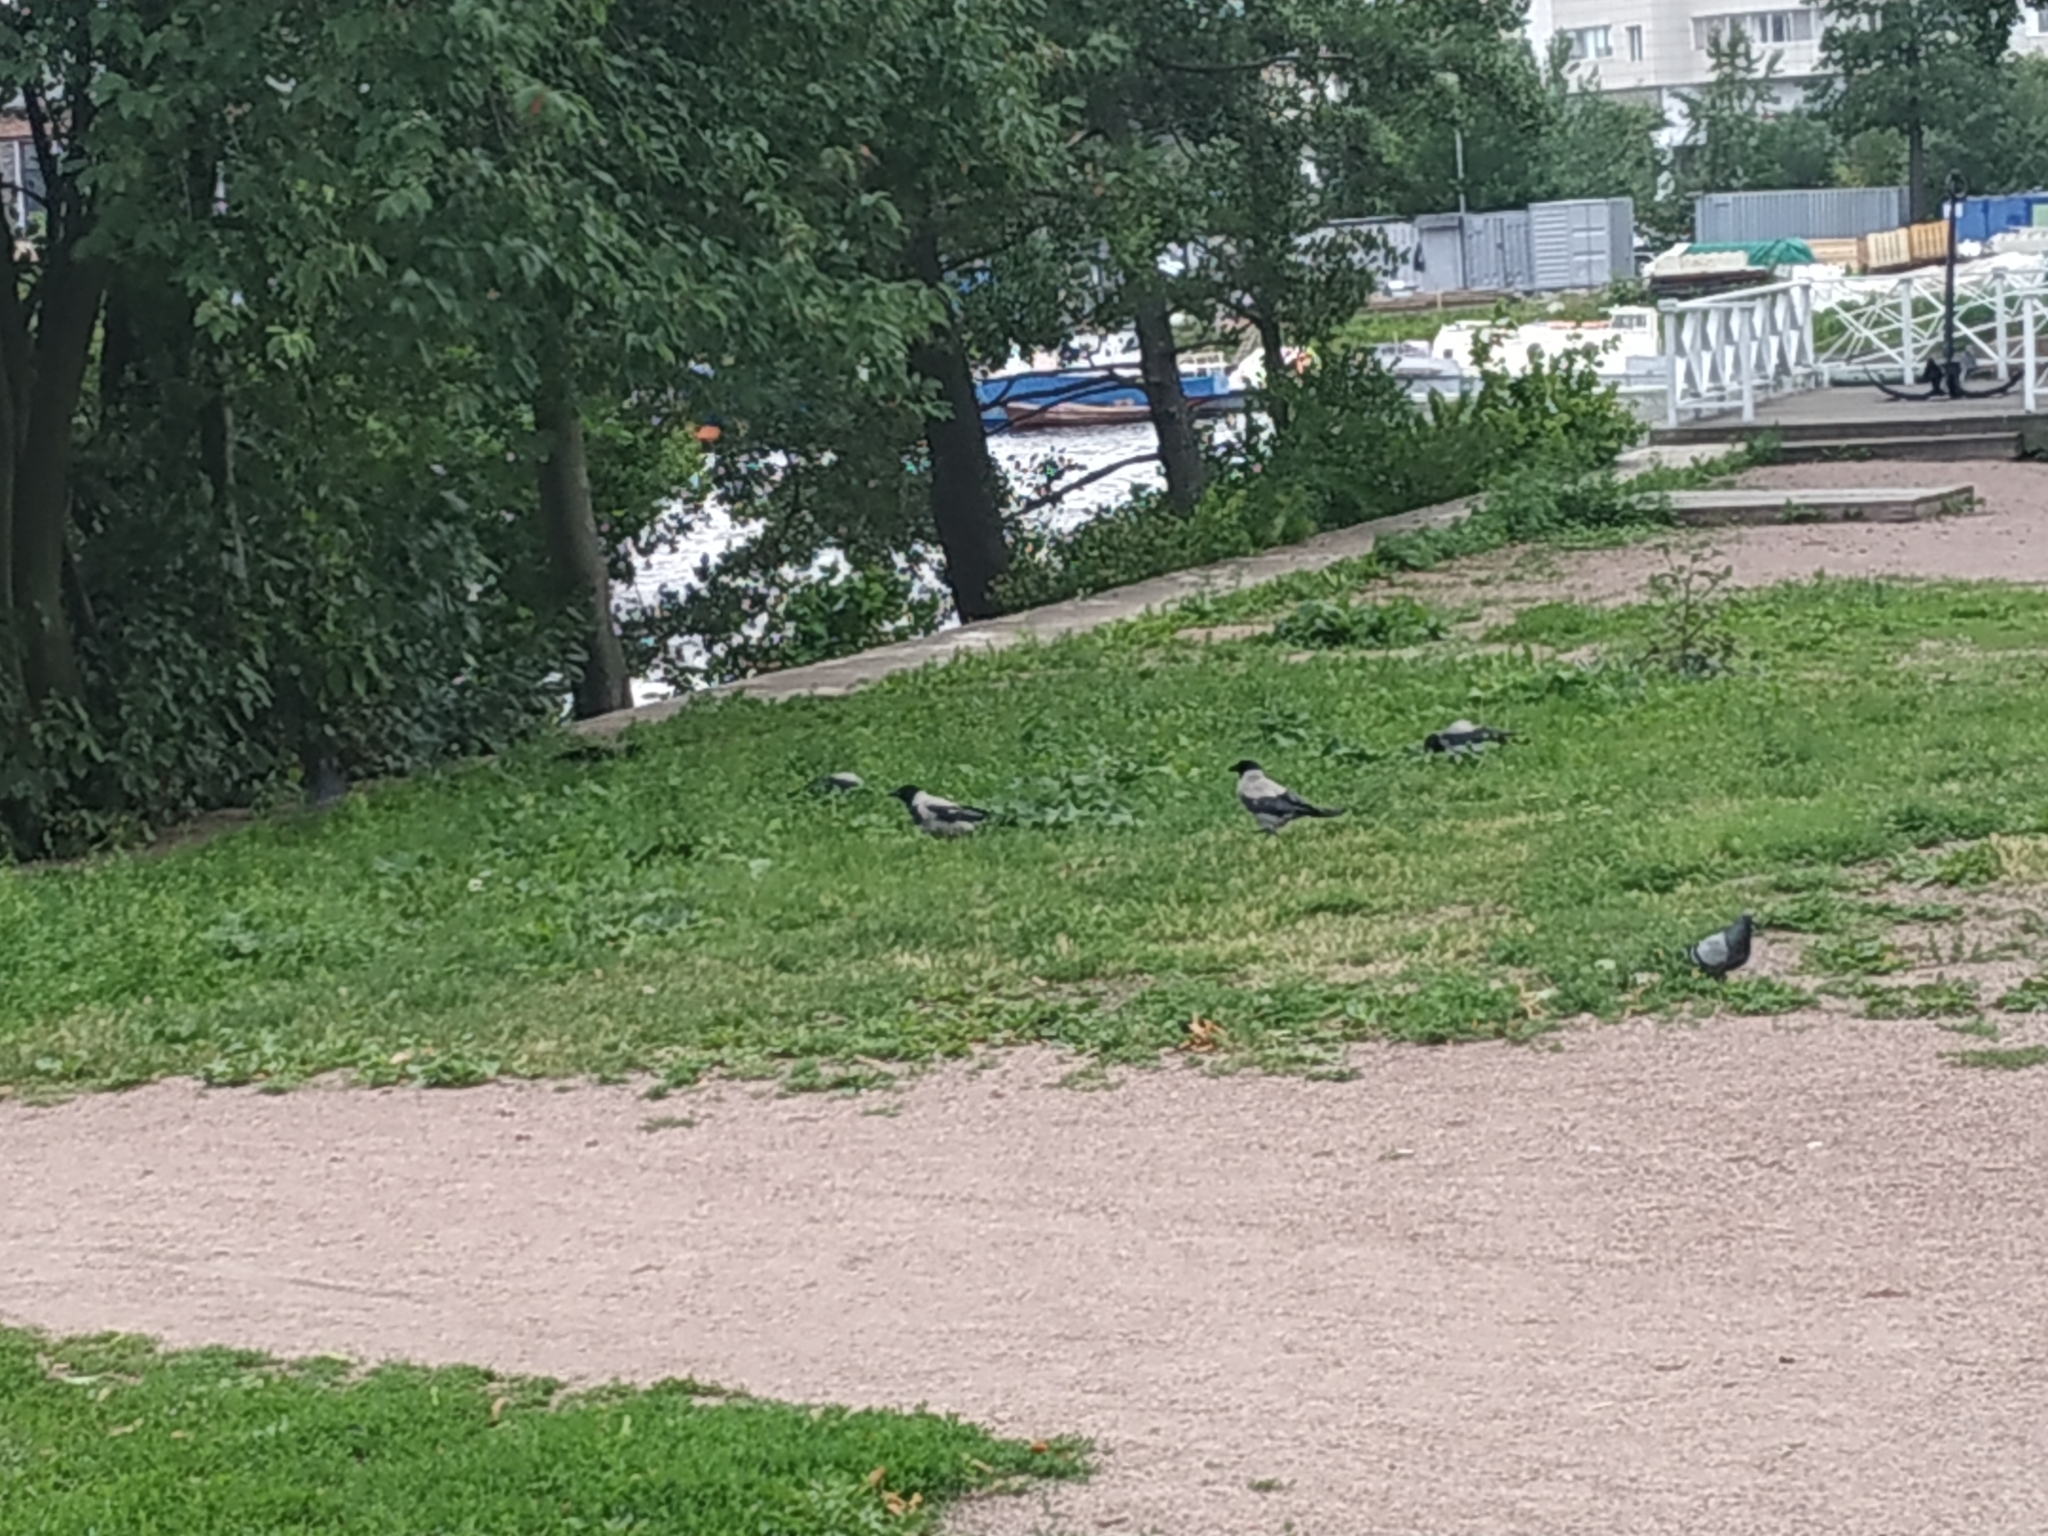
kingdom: Animalia
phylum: Chordata
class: Aves
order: Passeriformes
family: Corvidae
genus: Corvus
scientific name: Corvus cornix
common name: Hooded crow
